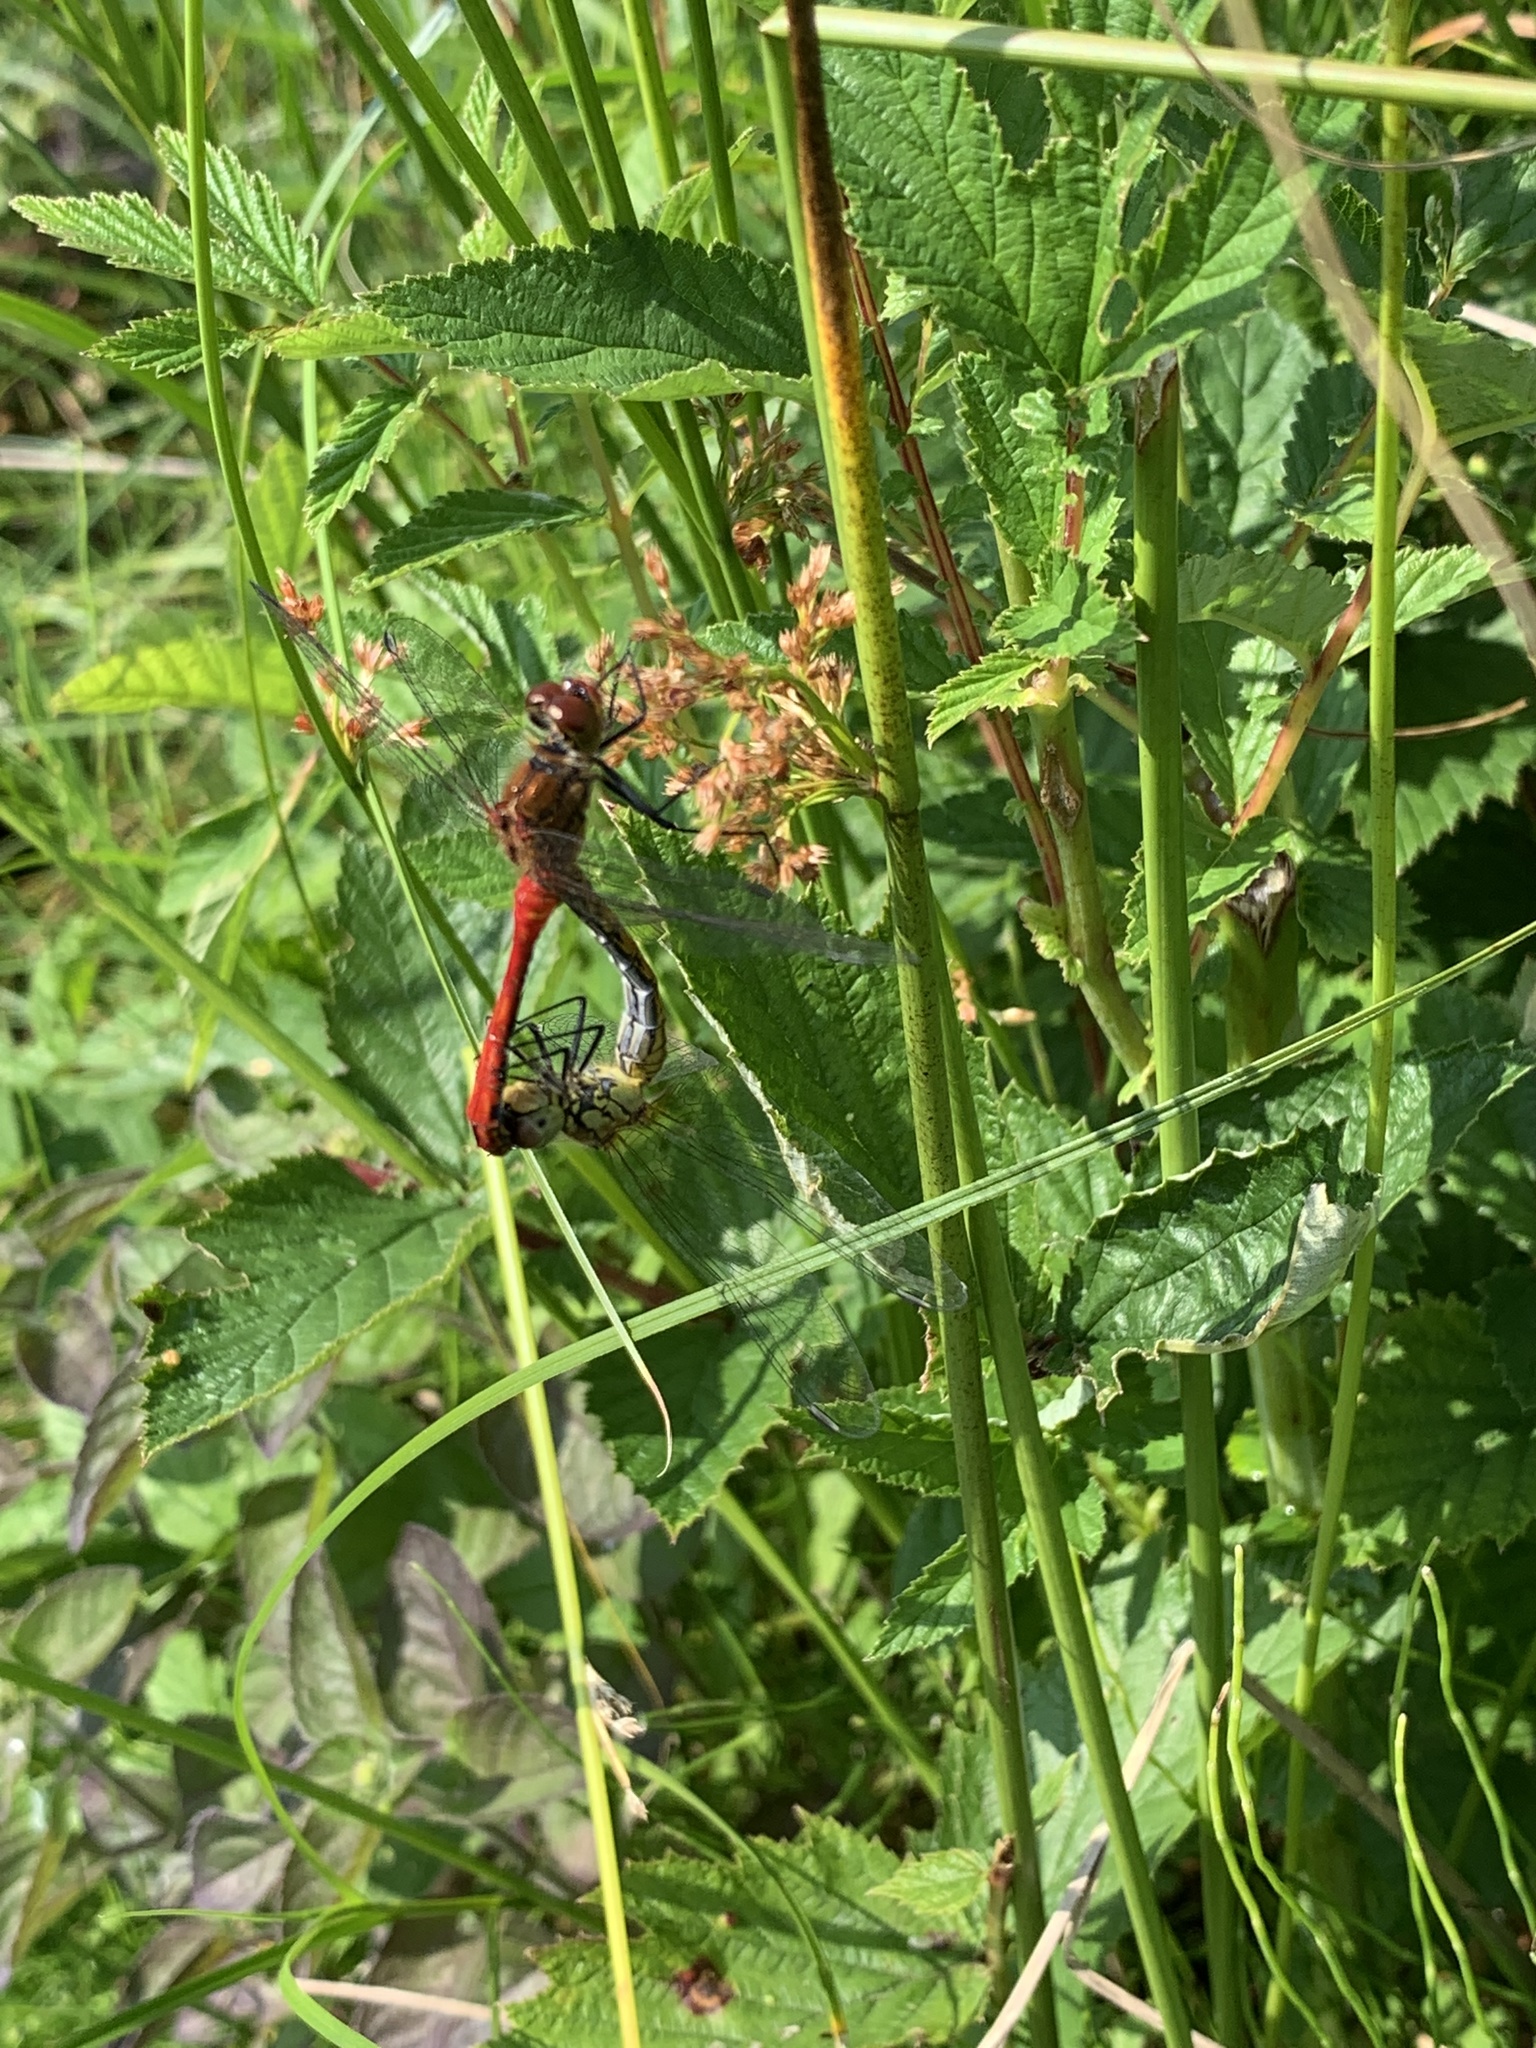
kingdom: Animalia
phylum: Arthropoda
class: Insecta
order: Odonata
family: Libellulidae
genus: Sympetrum
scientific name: Sympetrum sanguineum
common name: Ruddy darter
